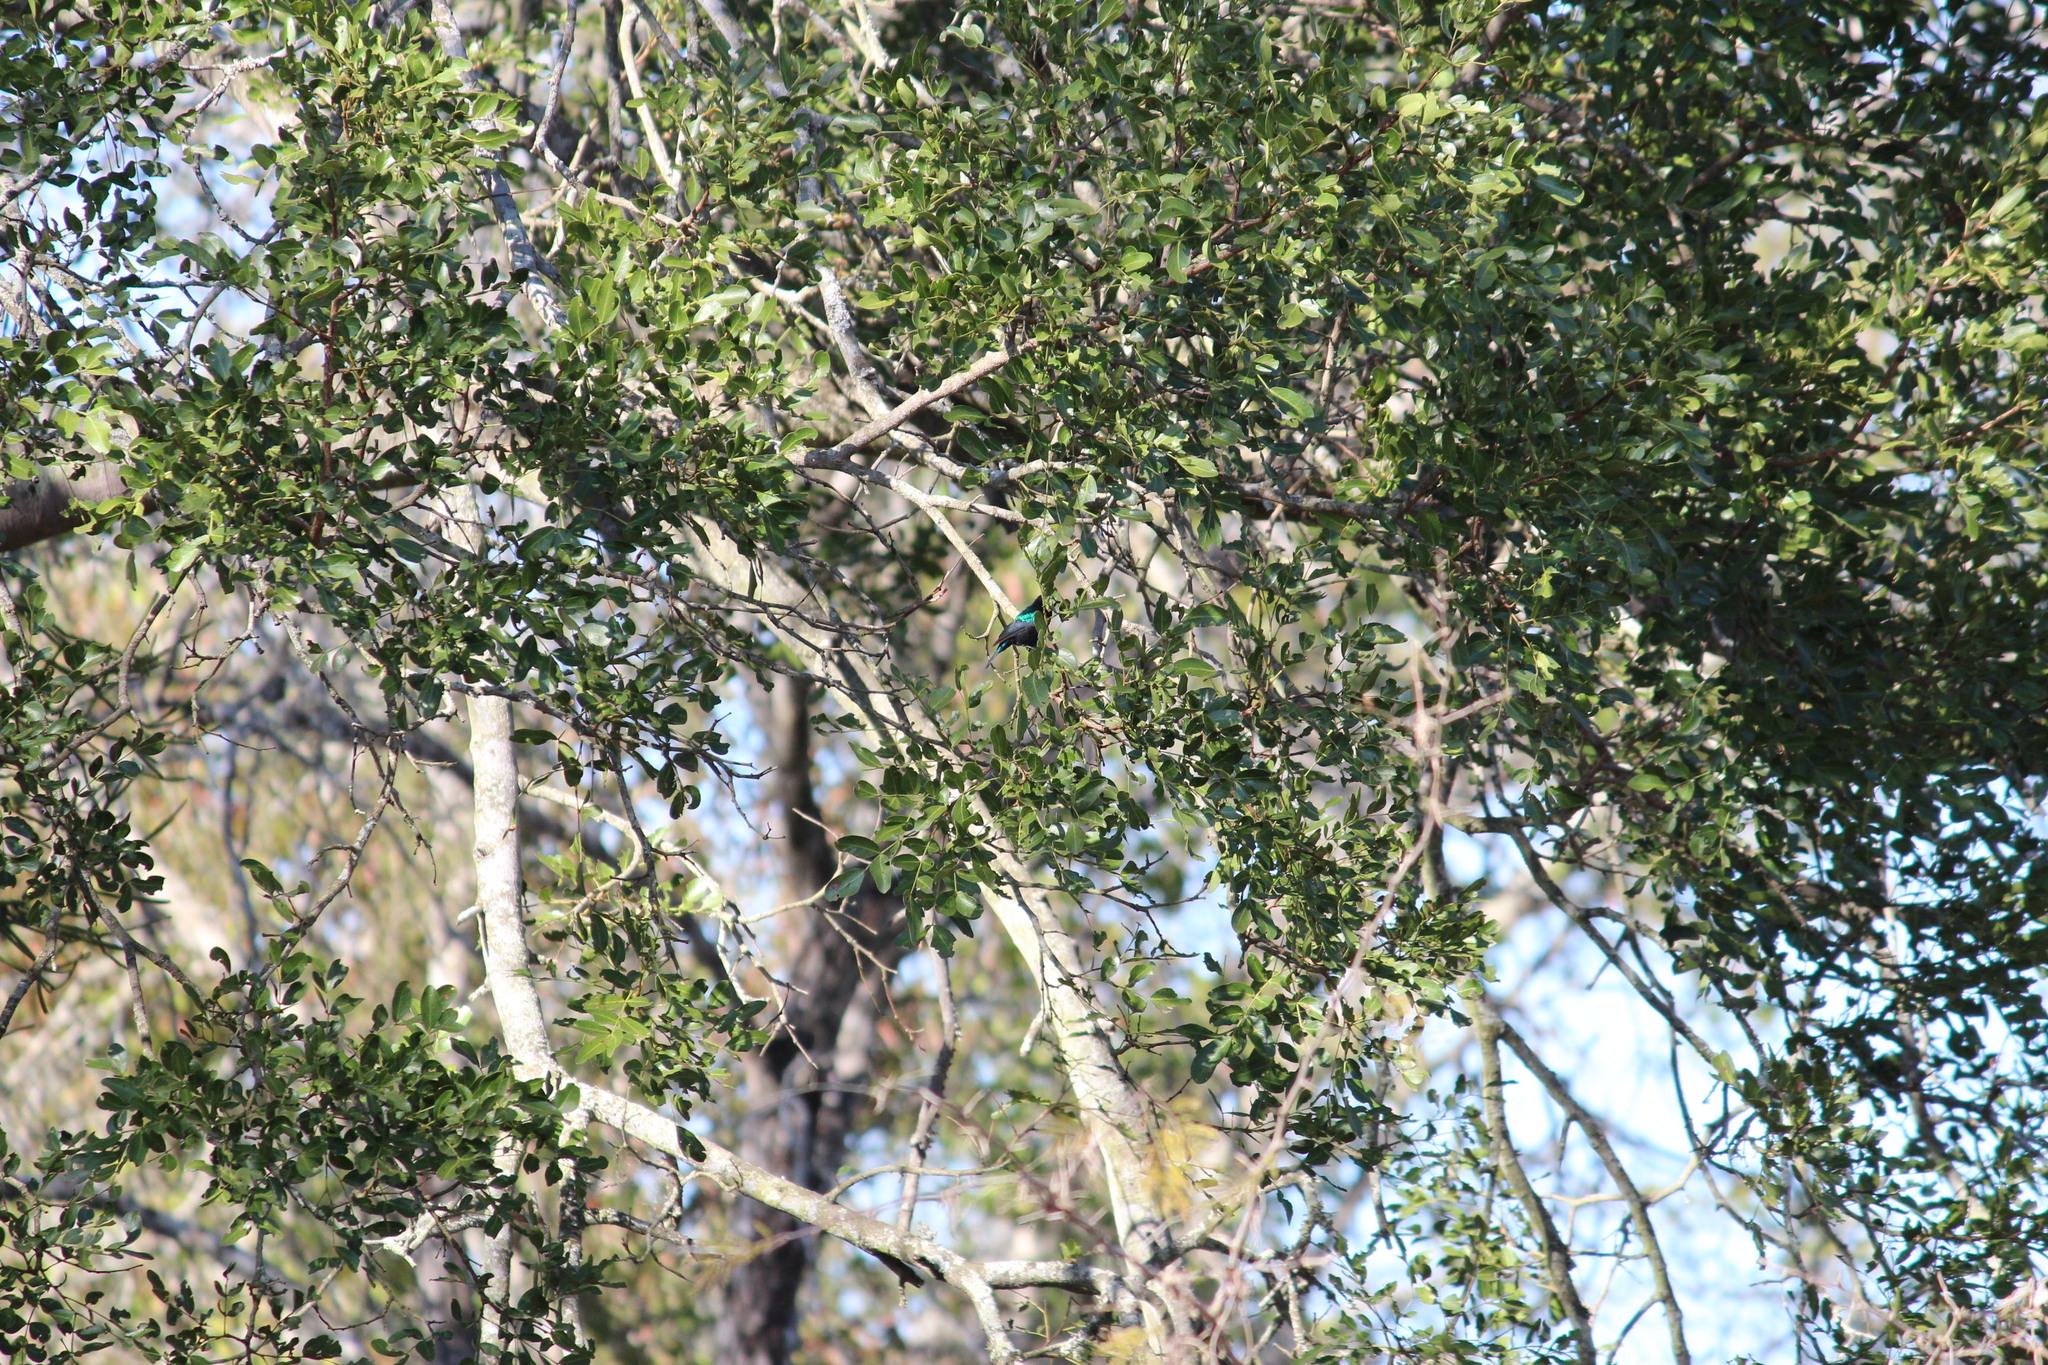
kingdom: Animalia
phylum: Chordata
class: Aves
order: Passeriformes
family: Nectariniidae
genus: Cinnyris
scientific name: Cinnyris mariquensis
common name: Marico sunbird
